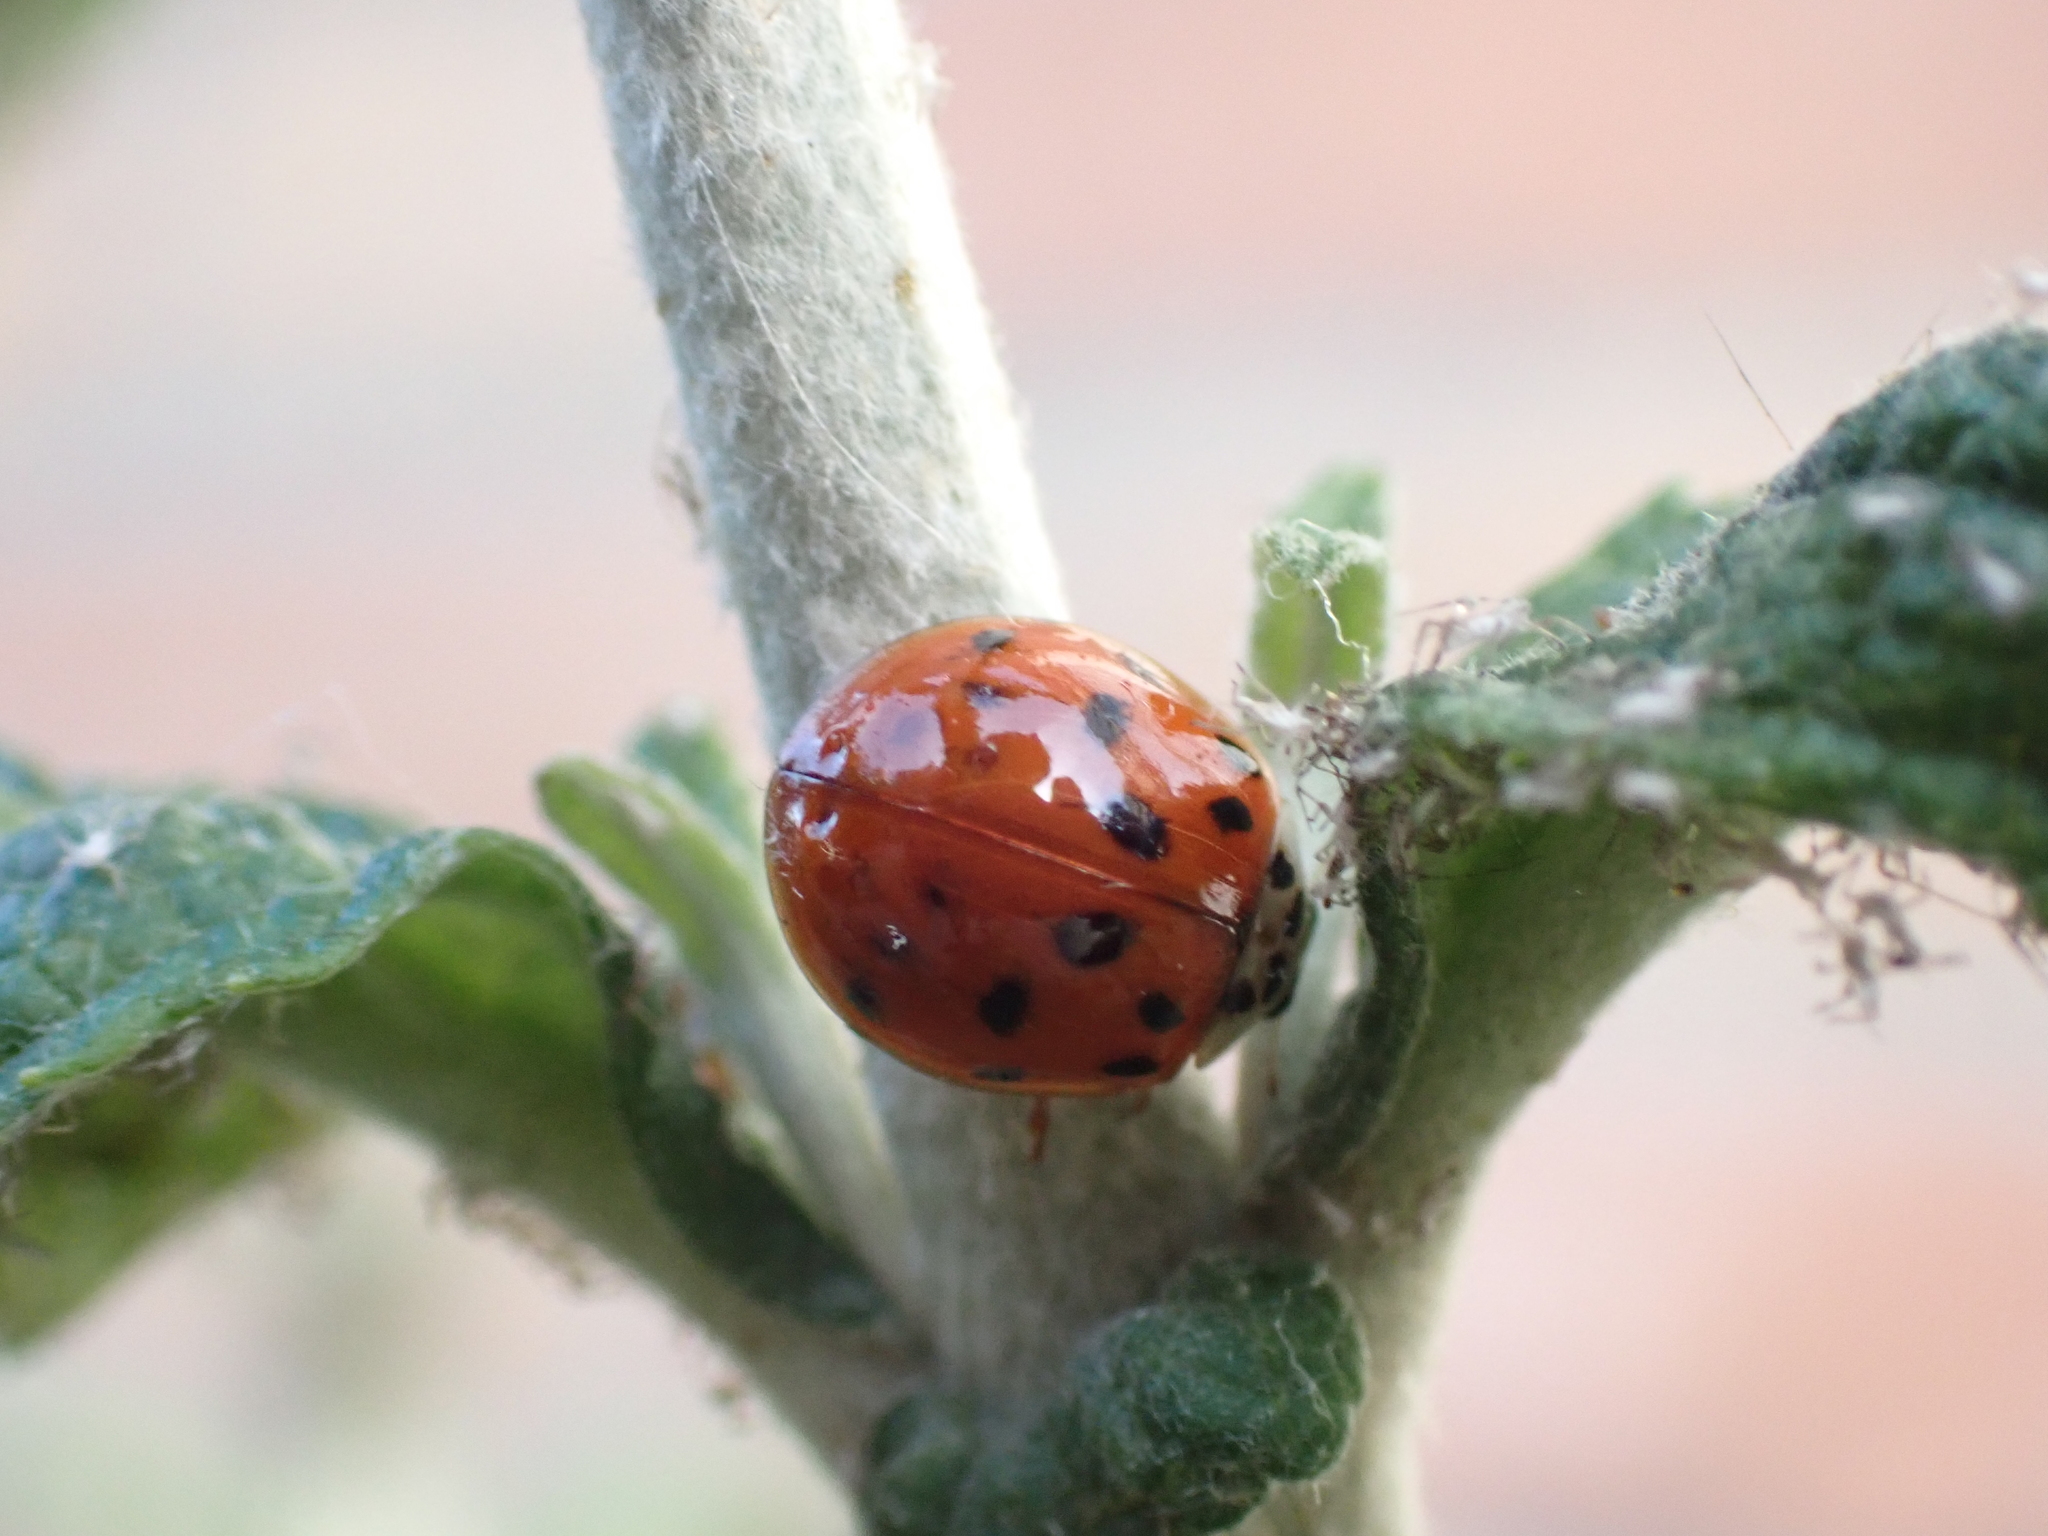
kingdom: Animalia
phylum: Arthropoda
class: Insecta
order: Coleoptera
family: Coccinellidae
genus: Harmonia
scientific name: Harmonia axyridis
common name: Harlequin ladybird
